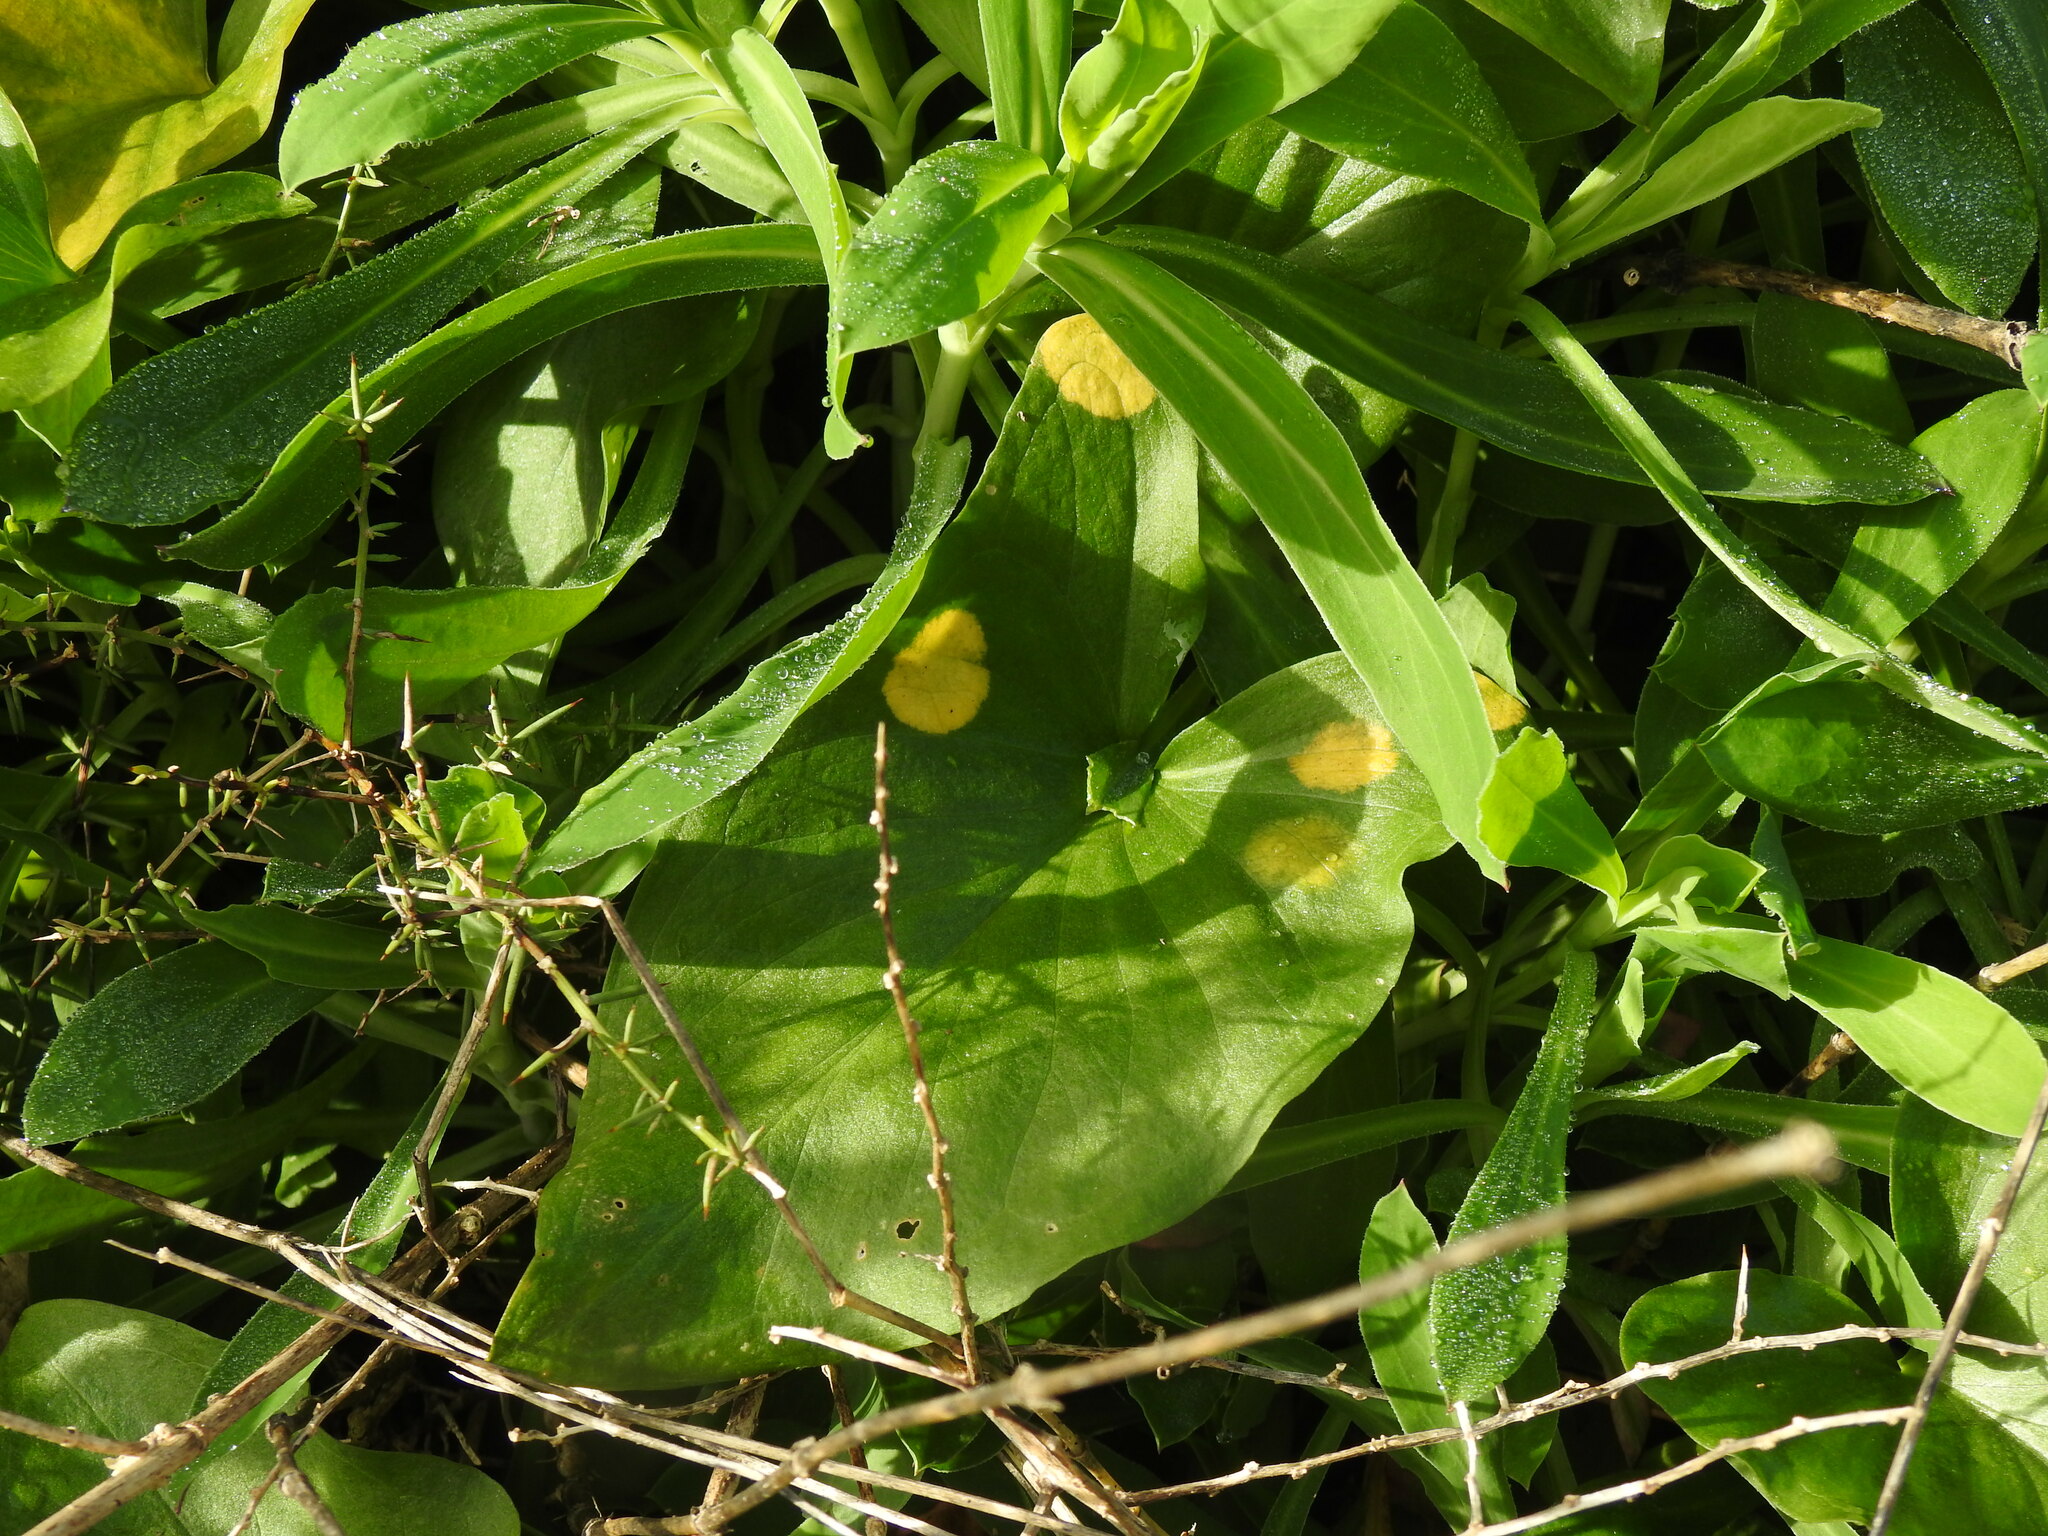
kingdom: Chromista
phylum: Ochrophyta
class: Xanthophyceae
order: Phyllosiphonales
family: Phyllosiphonaceae
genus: Phyllosiphon
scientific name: Phyllosiphon arisari
